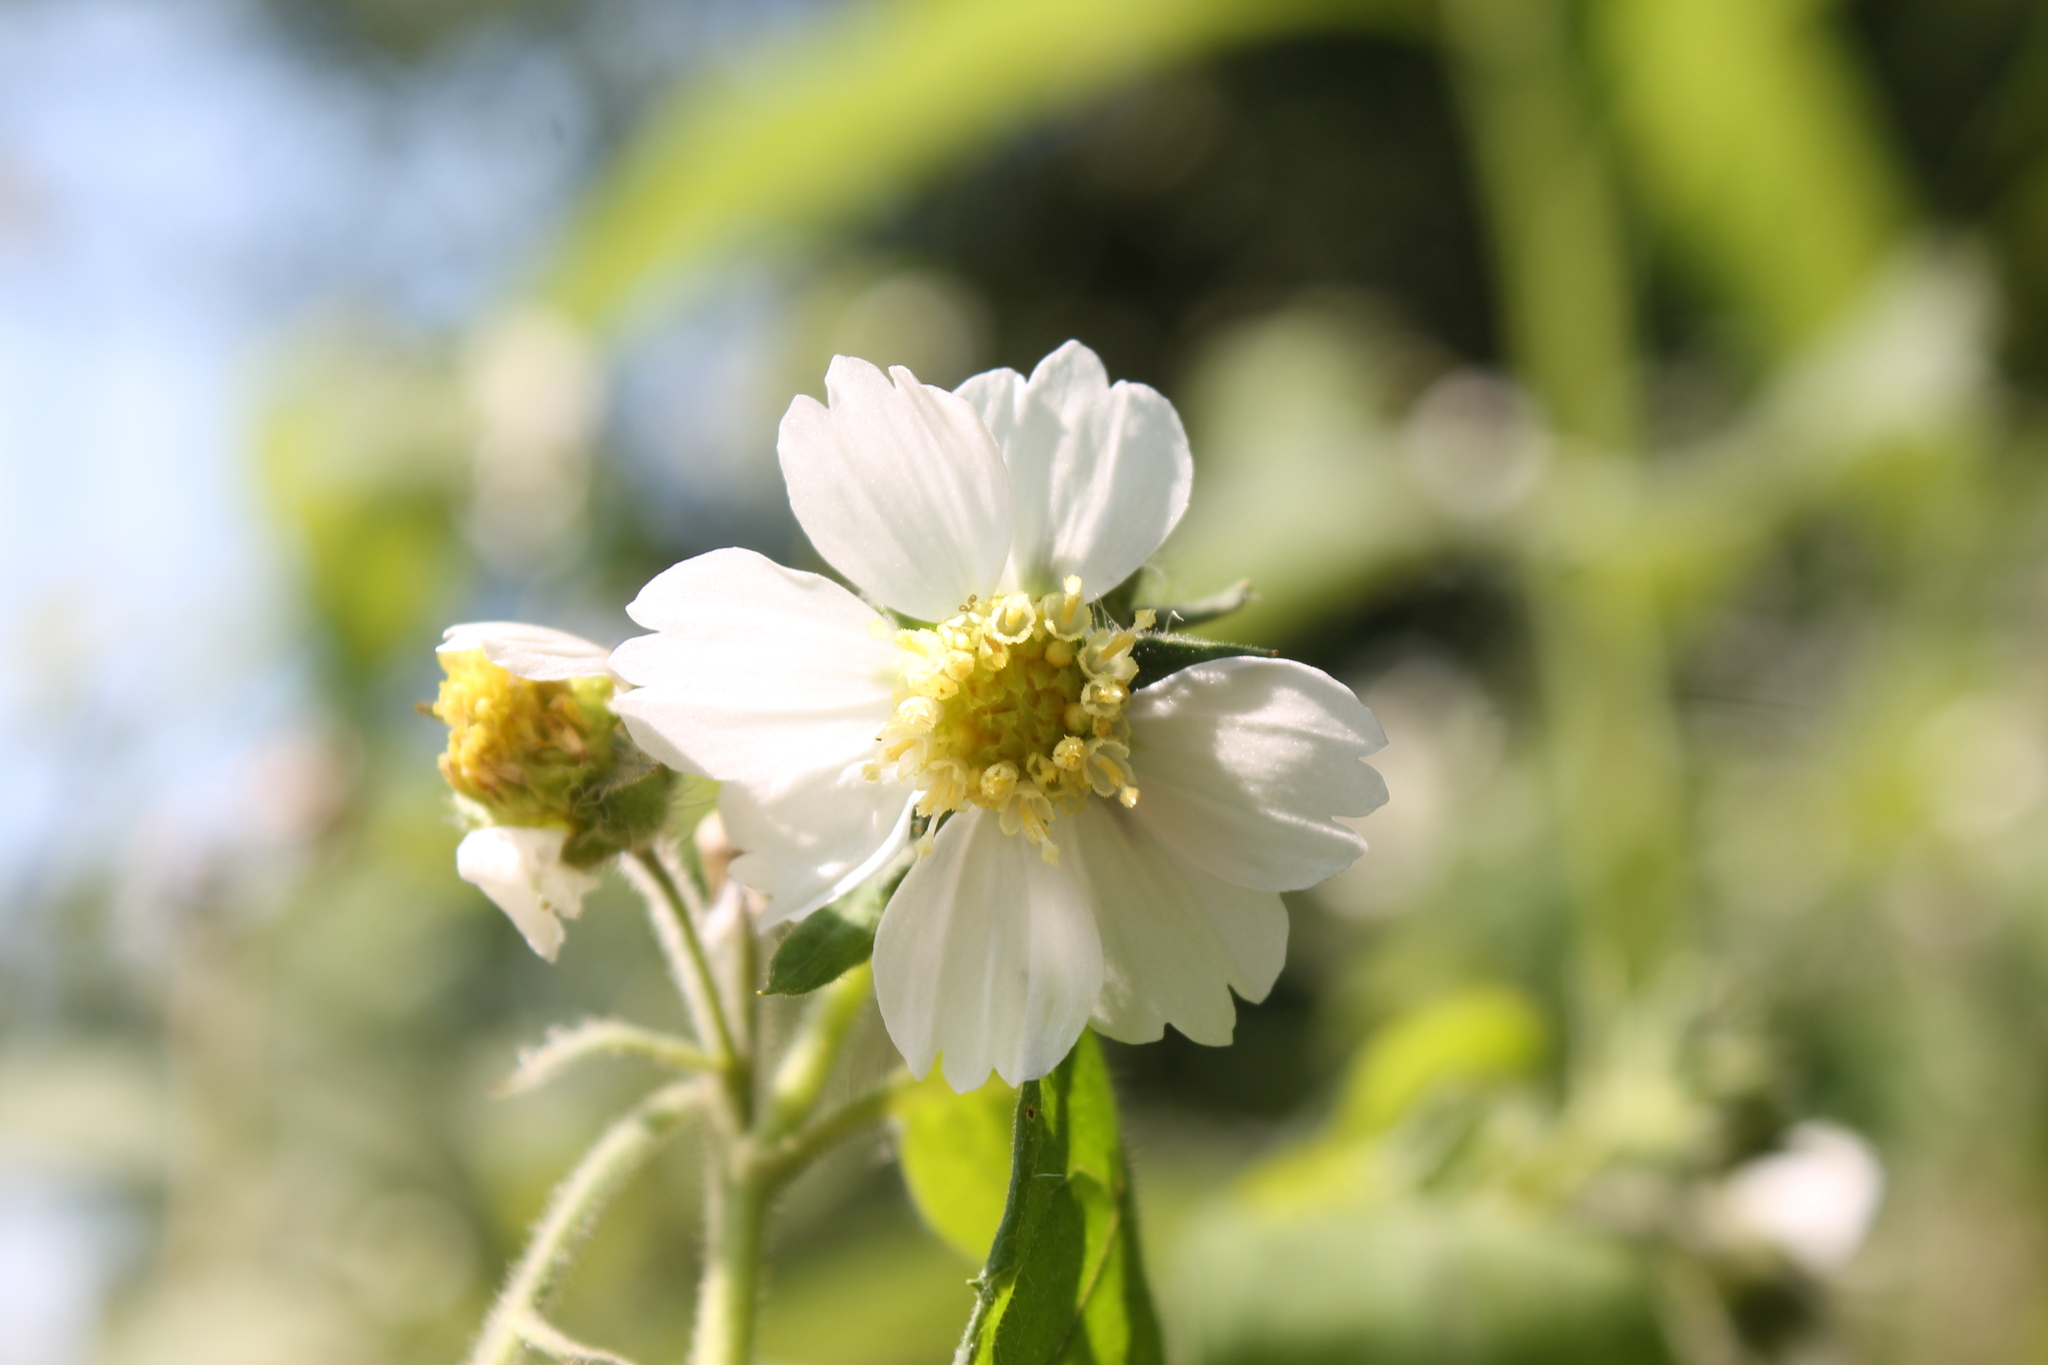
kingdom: Plantae
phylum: Tracheophyta
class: Magnoliopsida
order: Asterales
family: Asteraceae
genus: Polymnia
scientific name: Polymnia canadensis
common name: Pale-flowered leafcup
